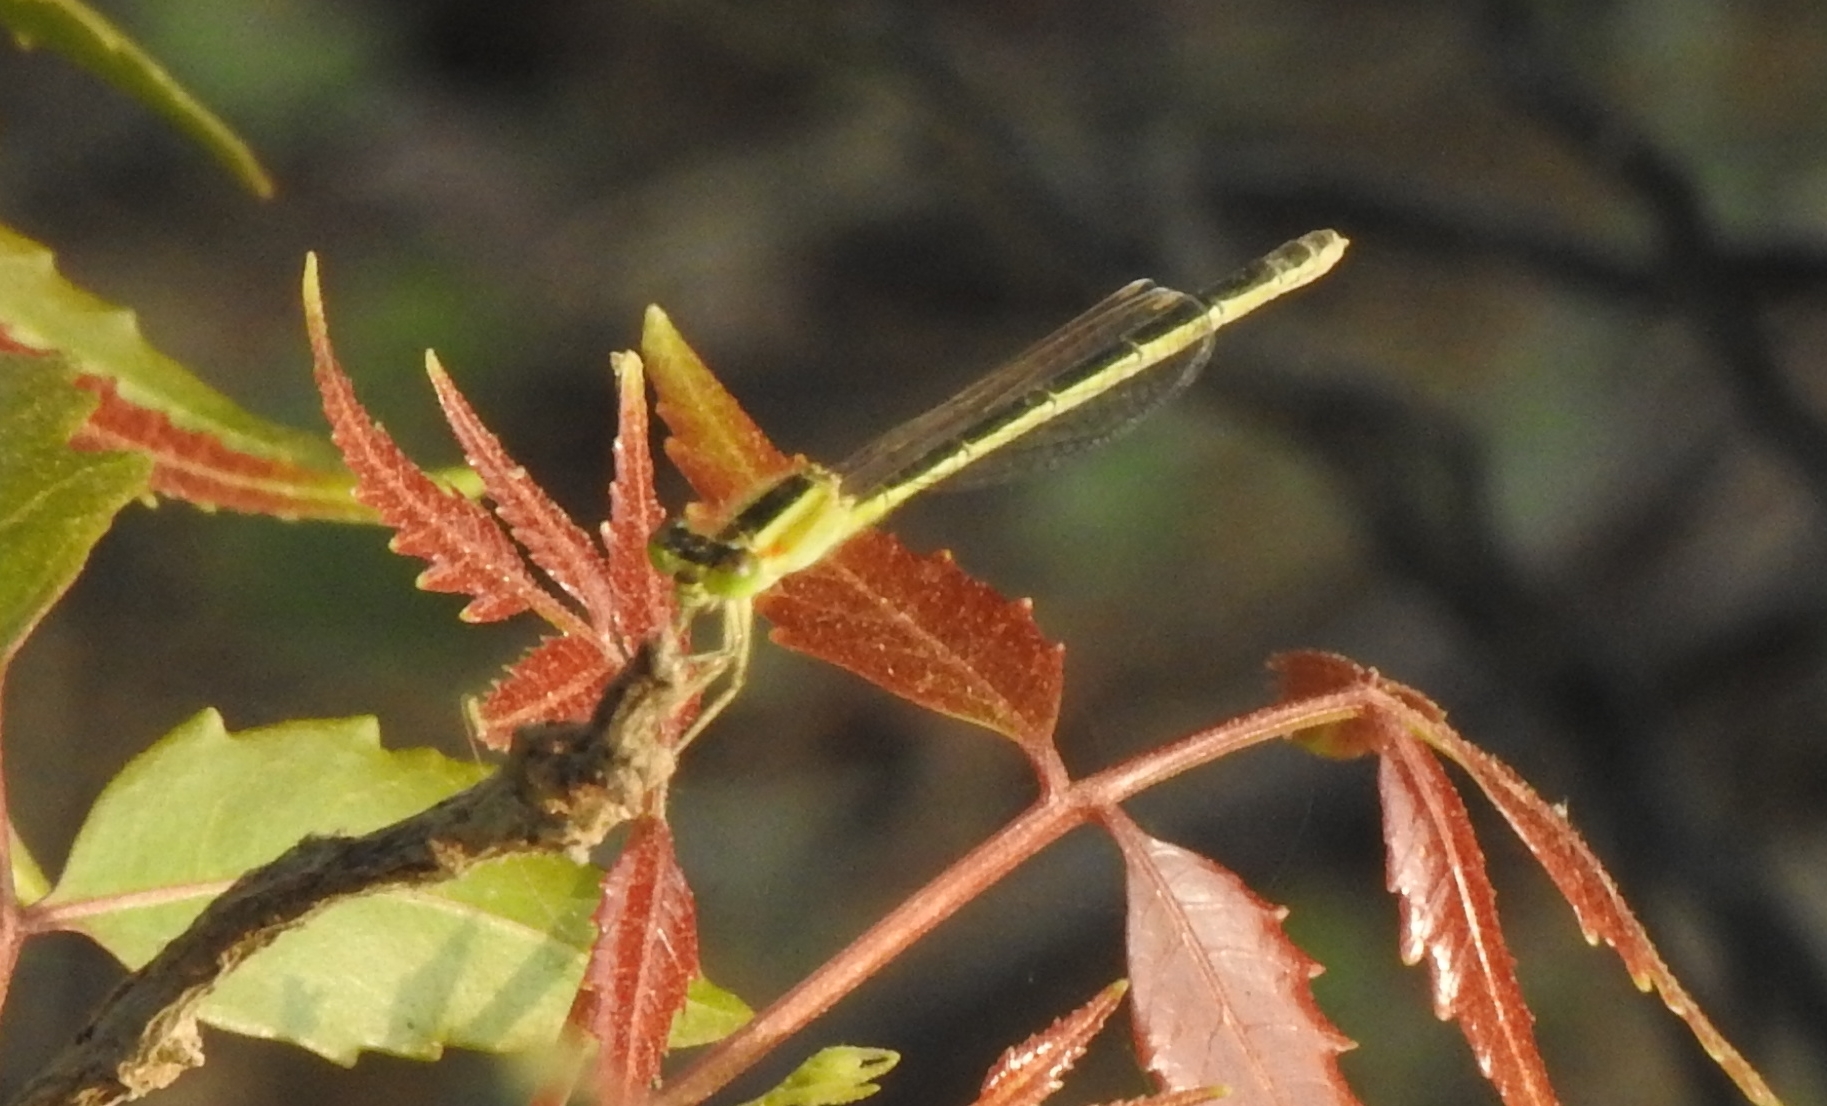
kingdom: Animalia
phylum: Arthropoda
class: Insecta
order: Odonata
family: Coenagrionidae
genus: Ischnura
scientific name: Ischnura senegalensis
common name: Tropical bluetail
